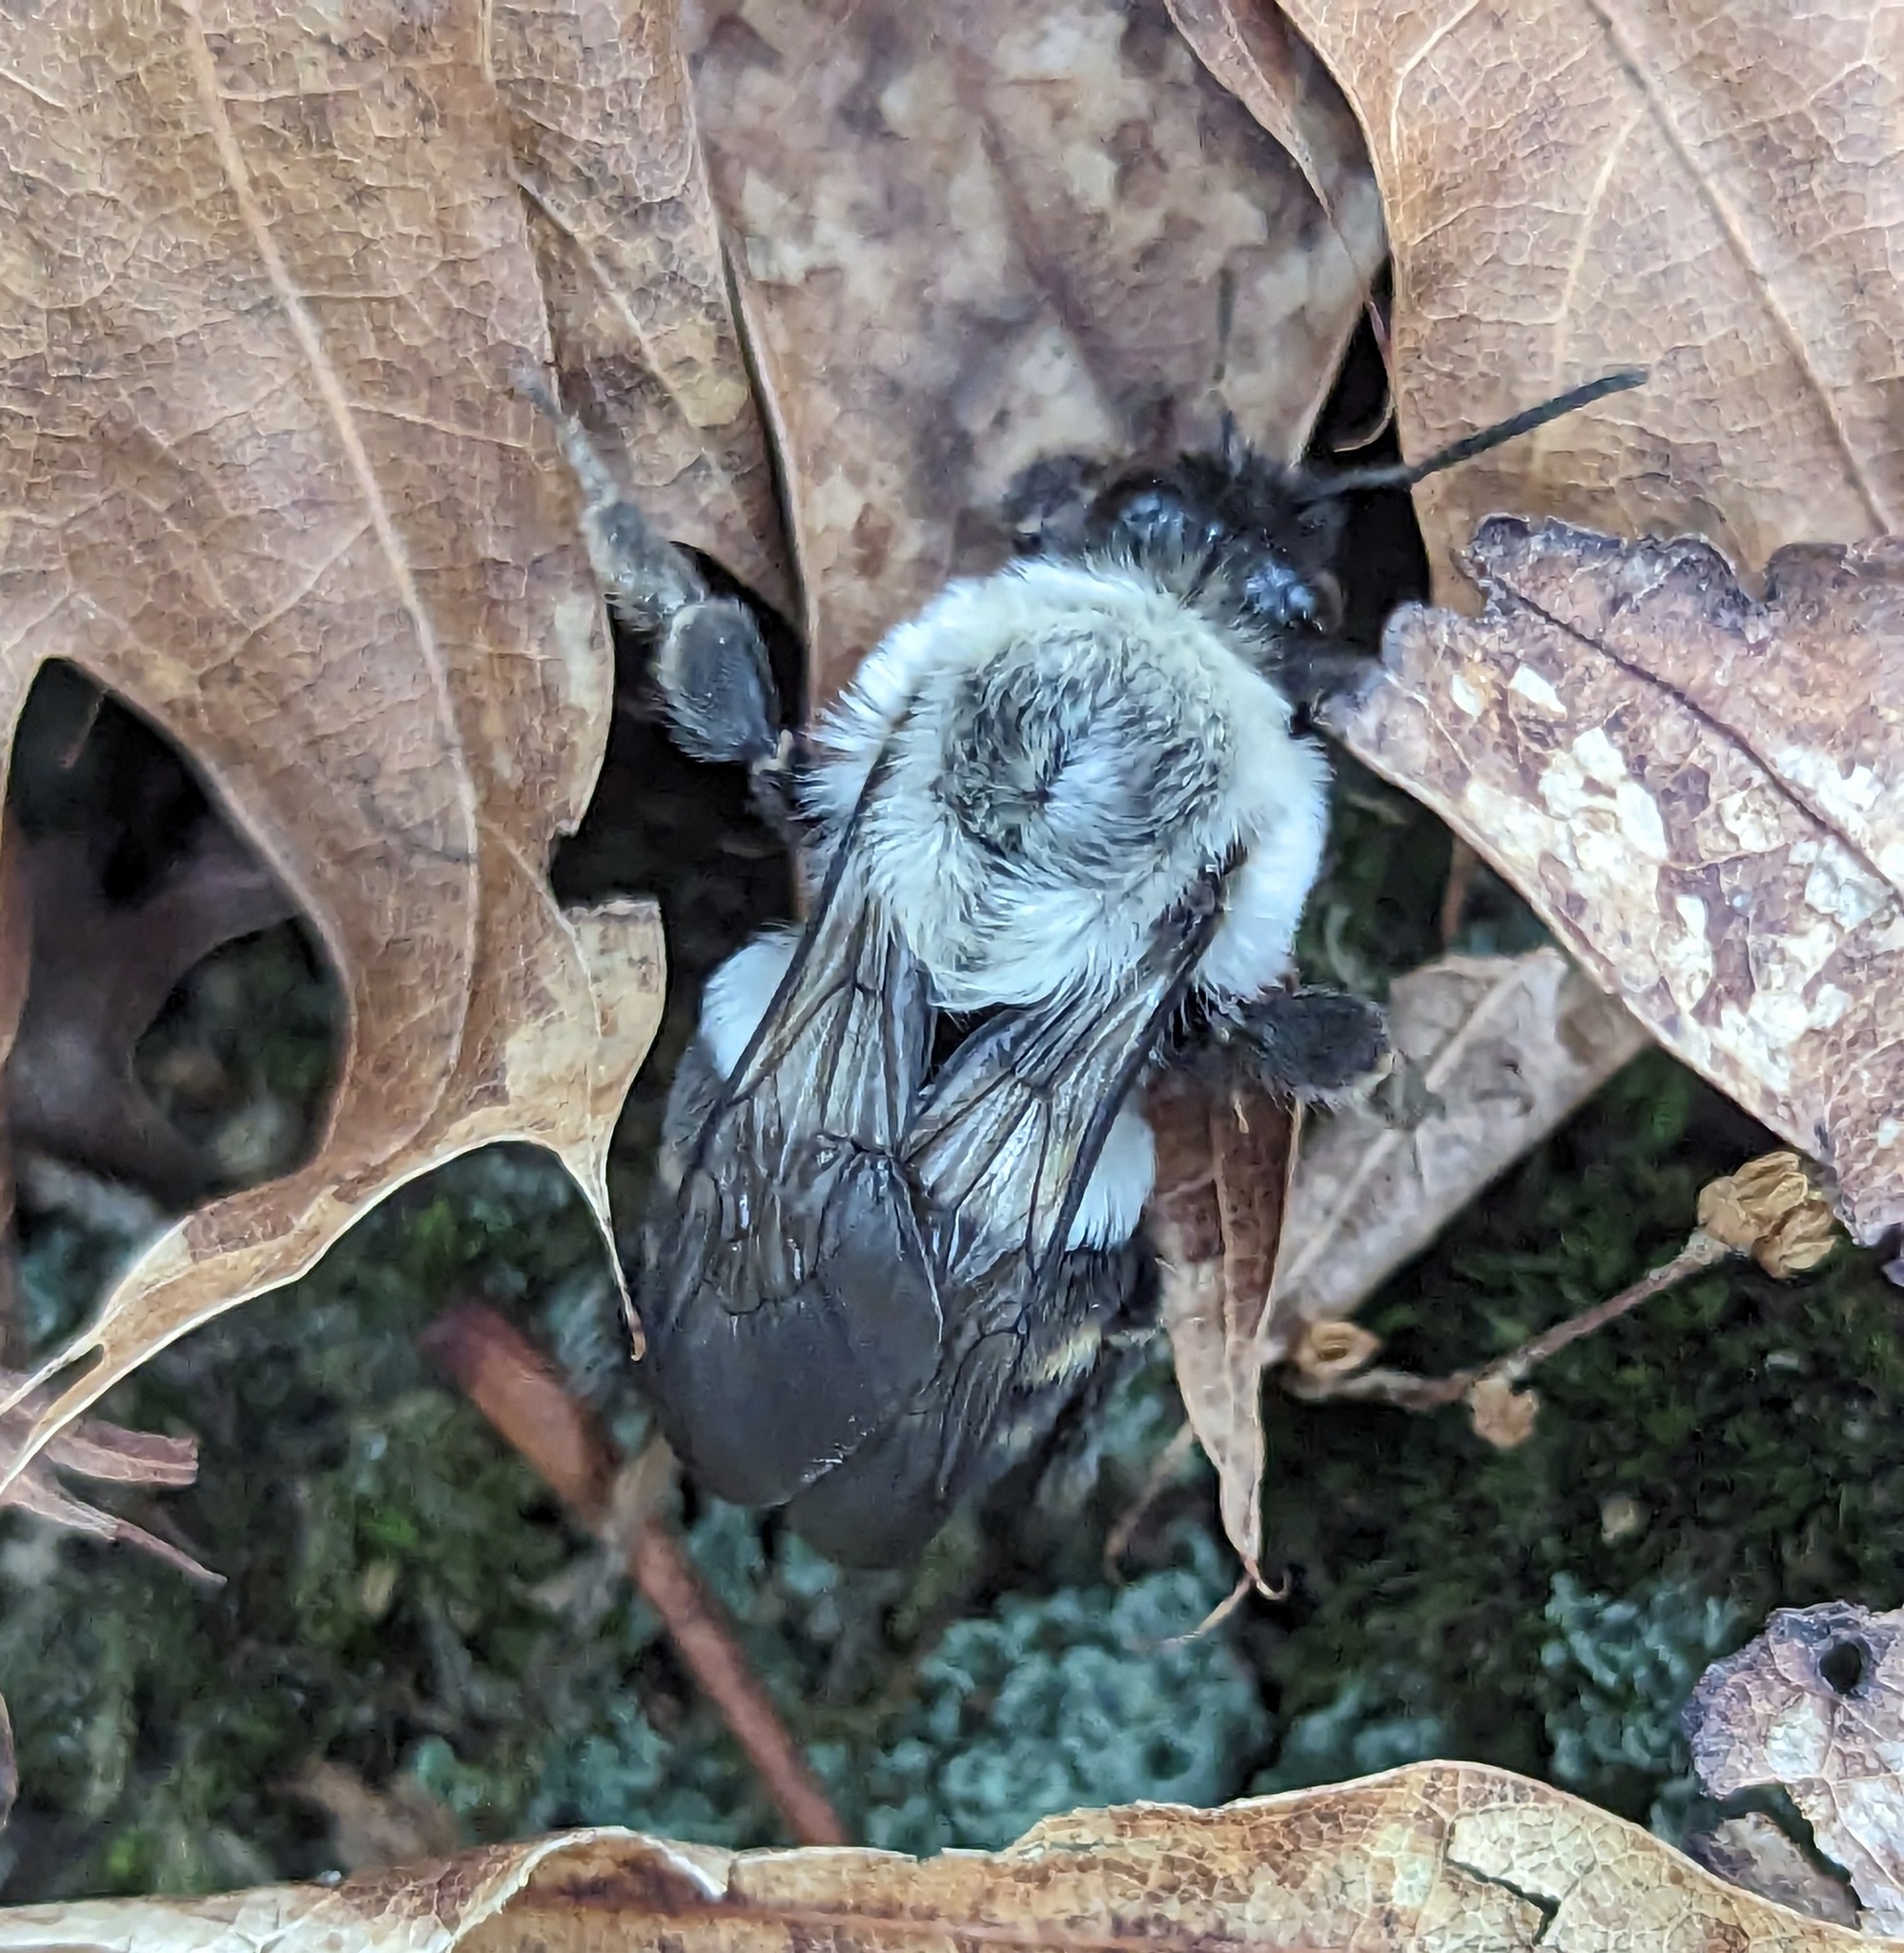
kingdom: Animalia
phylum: Arthropoda
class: Insecta
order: Hymenoptera
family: Apidae
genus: Bombus
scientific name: Bombus impatiens
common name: Common eastern bumble bee
